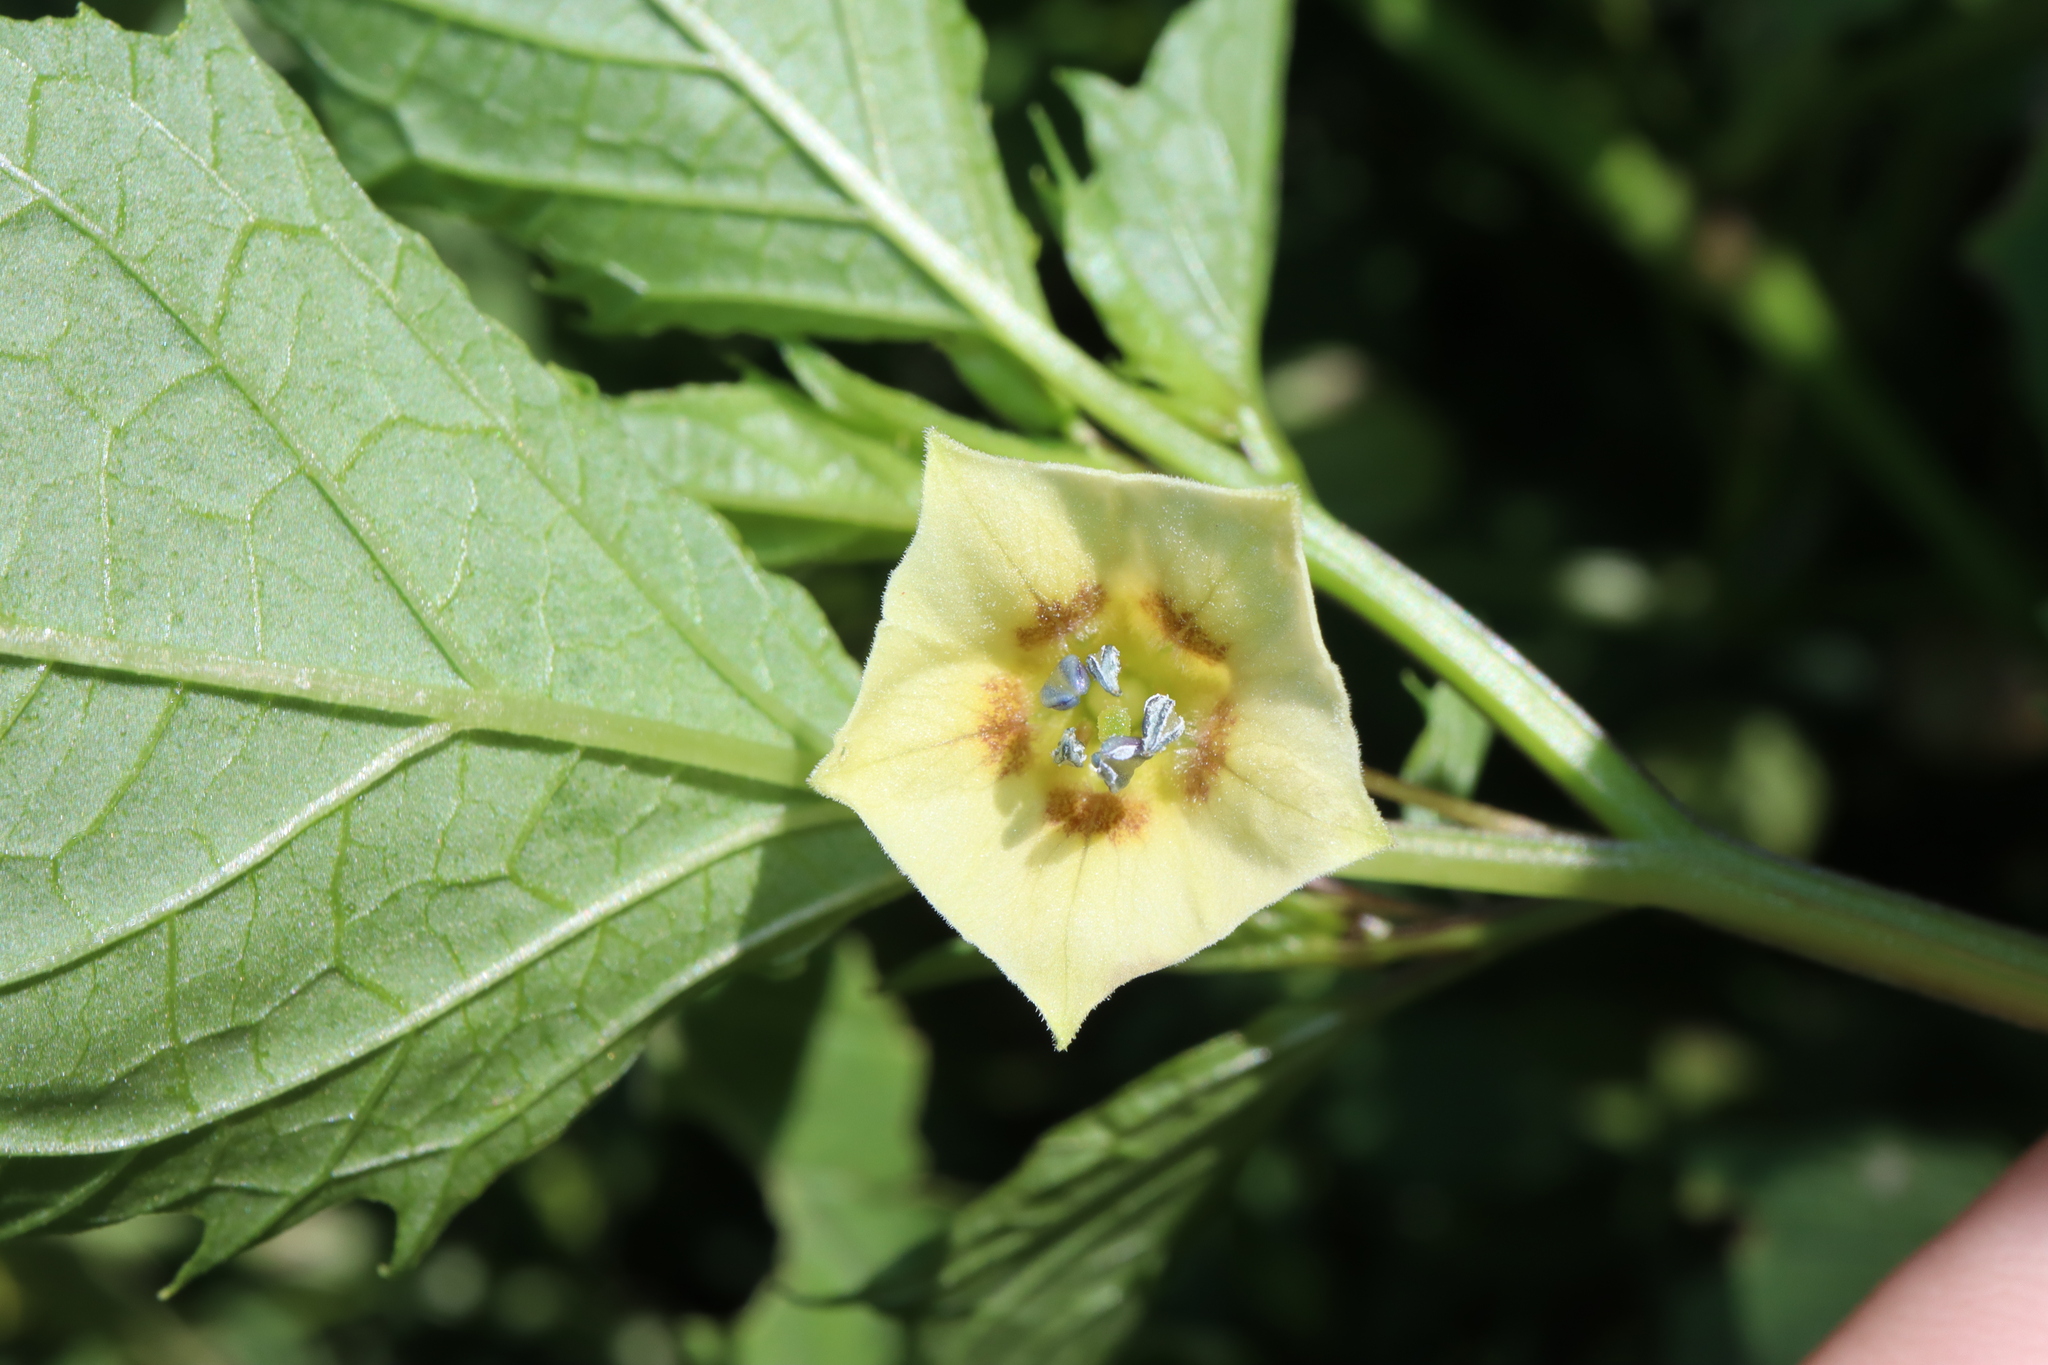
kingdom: Plantae
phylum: Tracheophyta
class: Magnoliopsida
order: Solanales
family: Solanaceae
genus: Physalis
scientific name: Physalis angulata
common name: Angular winter-cherry
